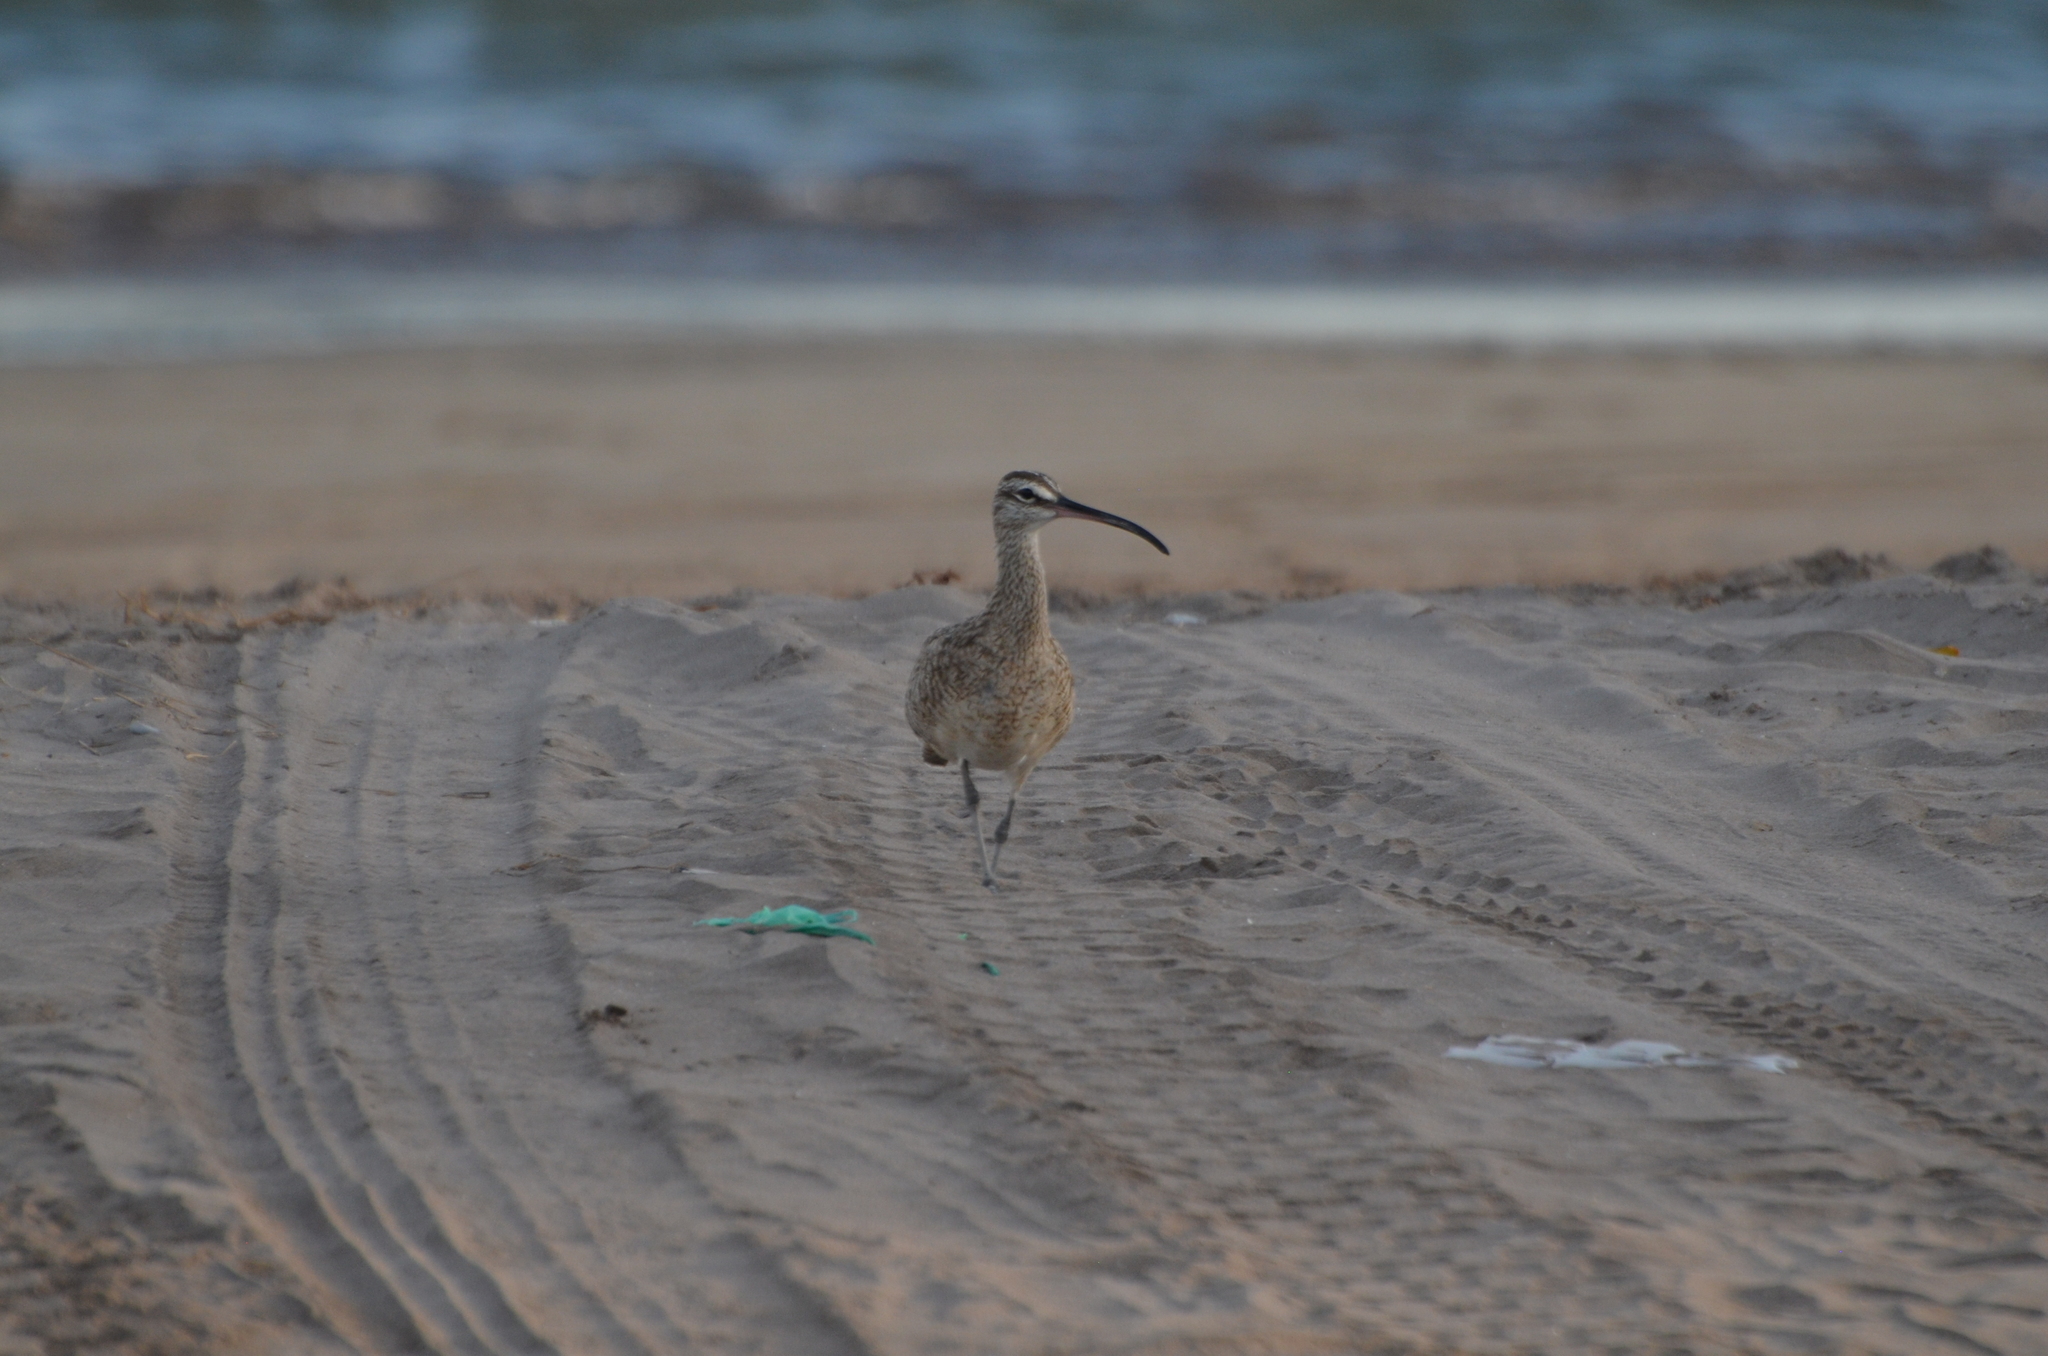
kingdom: Animalia
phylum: Chordata
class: Aves
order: Charadriiformes
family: Scolopacidae
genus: Numenius
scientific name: Numenius phaeopus
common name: Whimbrel
